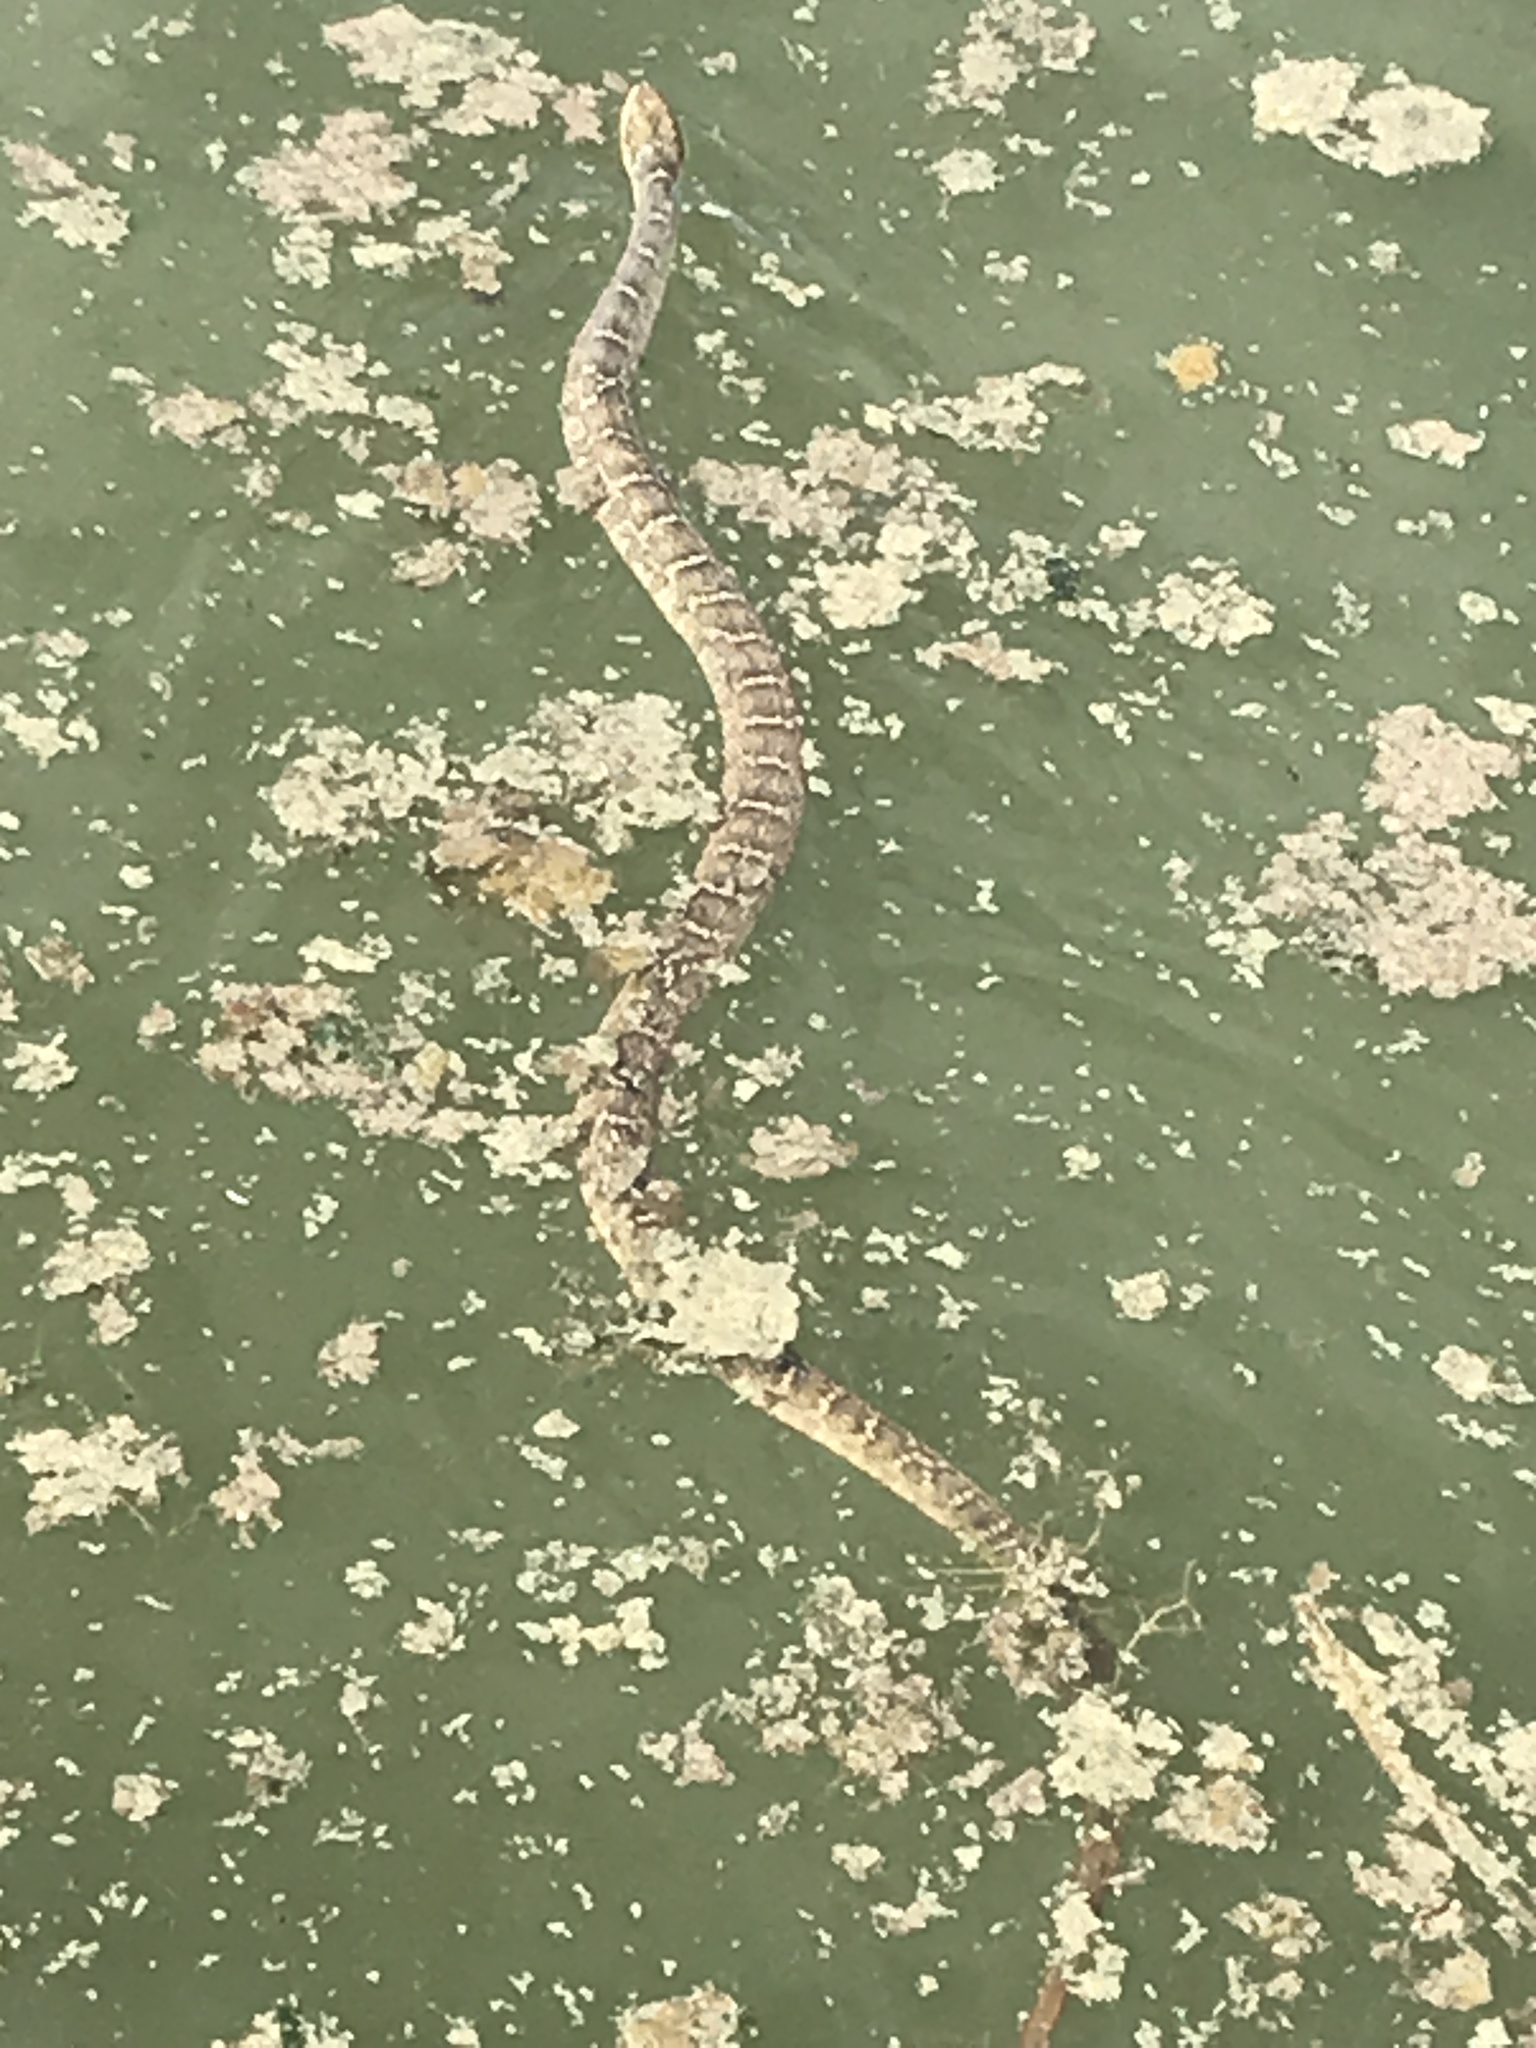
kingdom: Animalia
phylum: Chordata
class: Squamata
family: Colubridae
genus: Nerodia
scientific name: Nerodia erythrogaster
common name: Plainbelly water snake
